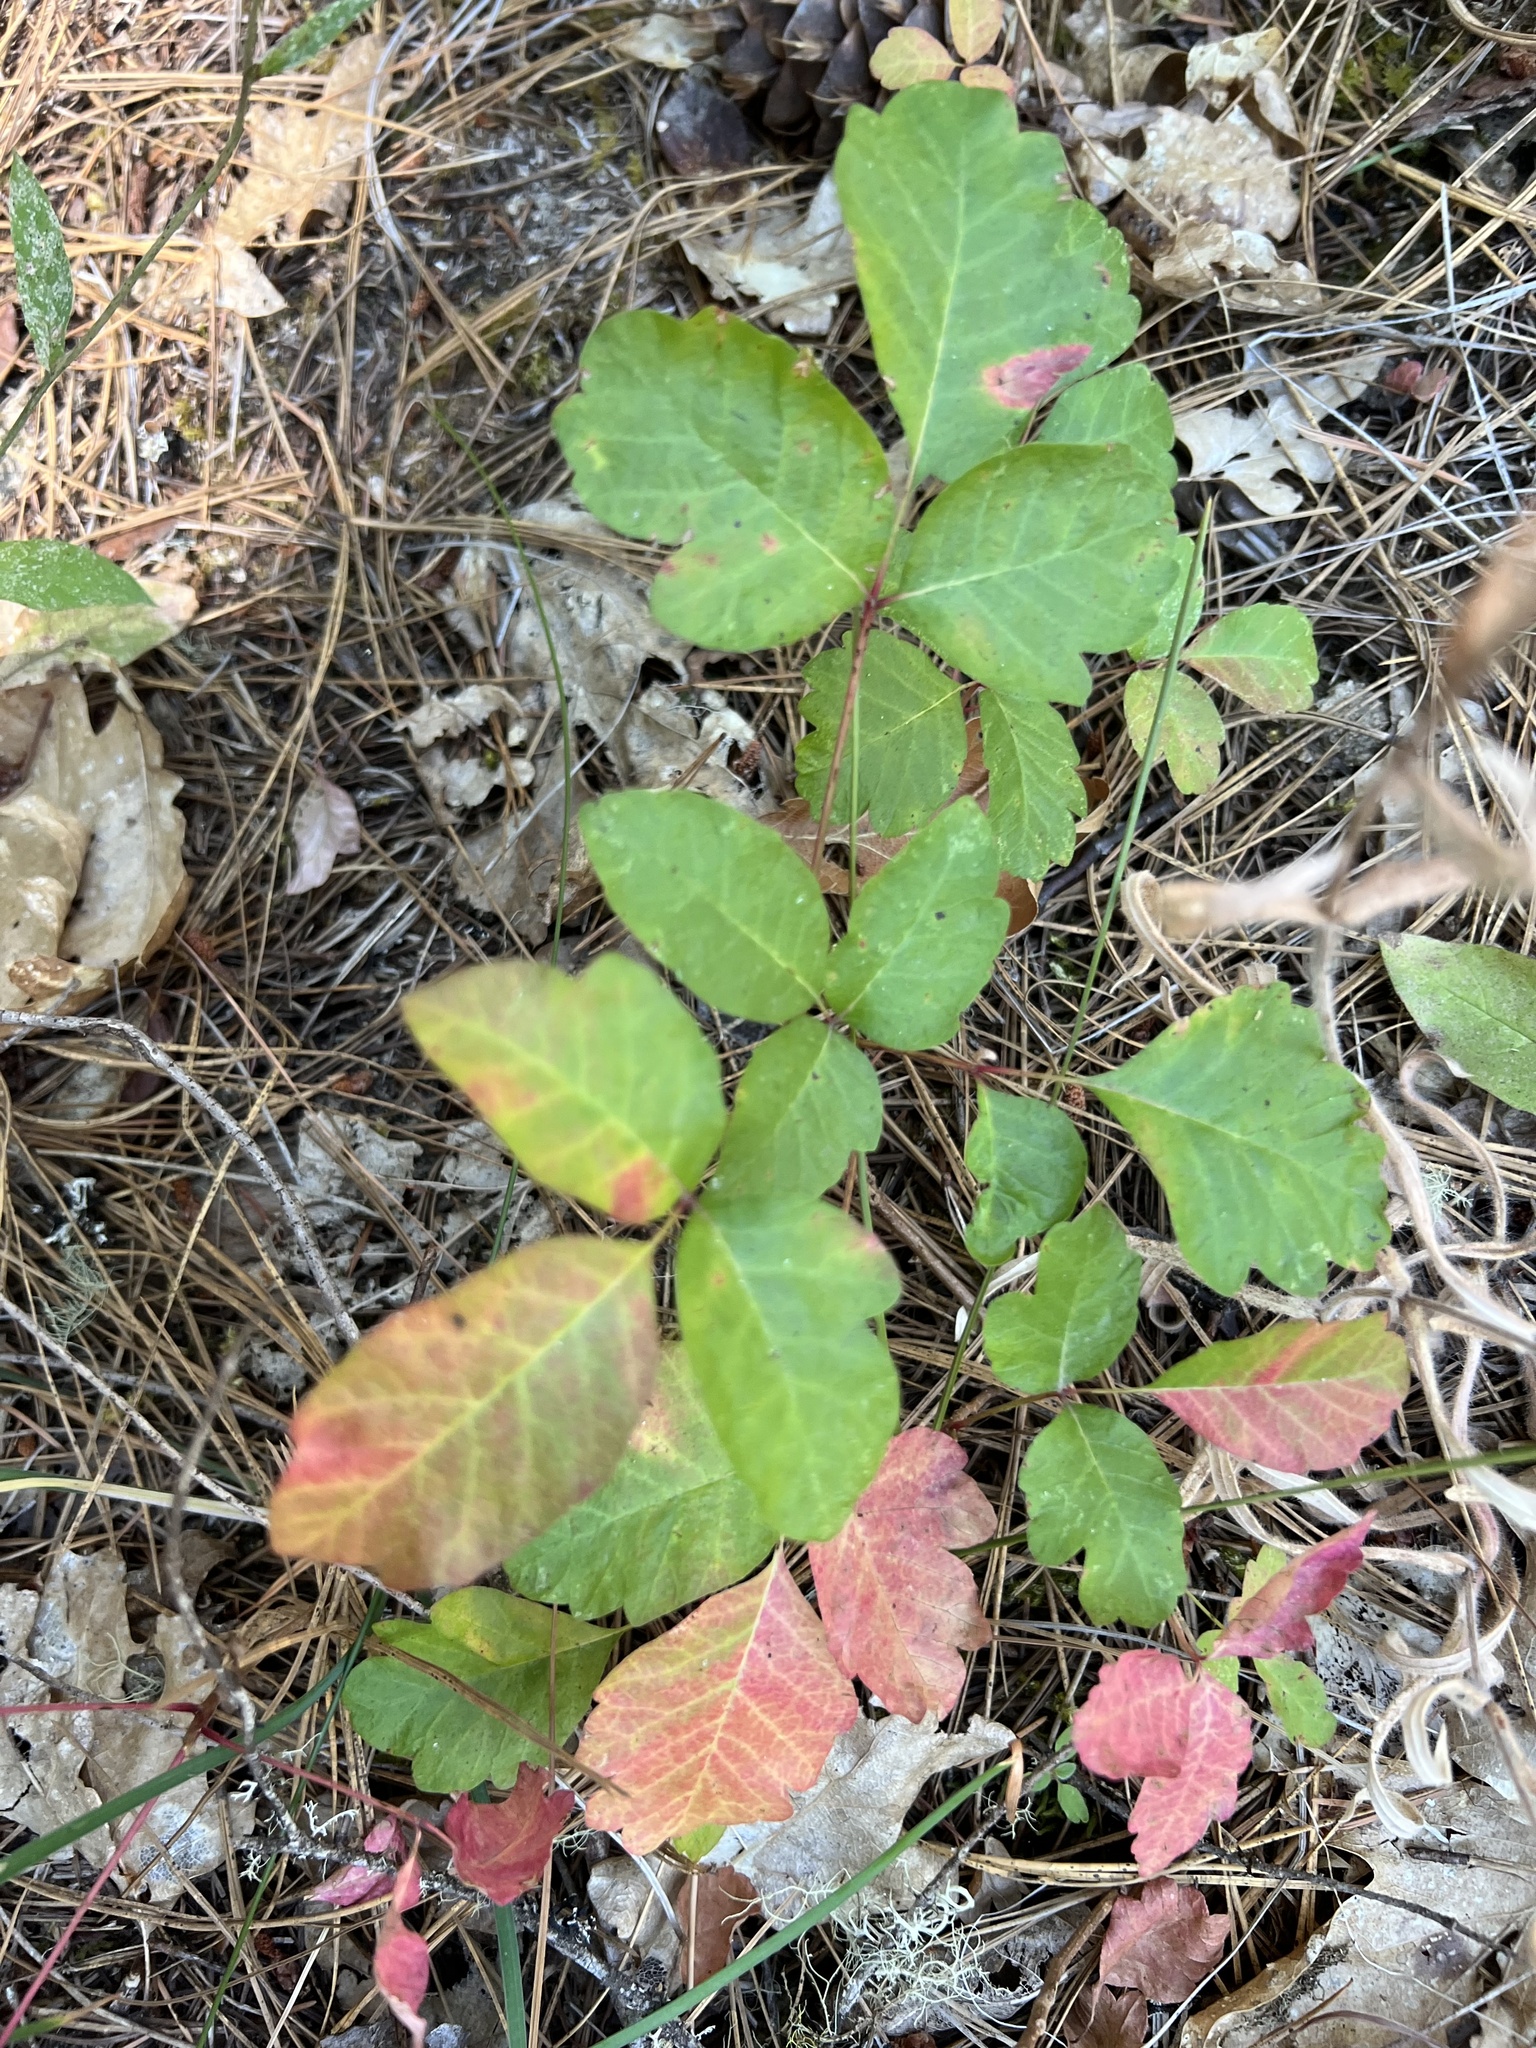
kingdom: Plantae
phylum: Tracheophyta
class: Magnoliopsida
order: Sapindales
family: Anacardiaceae
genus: Toxicodendron
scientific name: Toxicodendron diversilobum
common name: Pacific poison-oak
